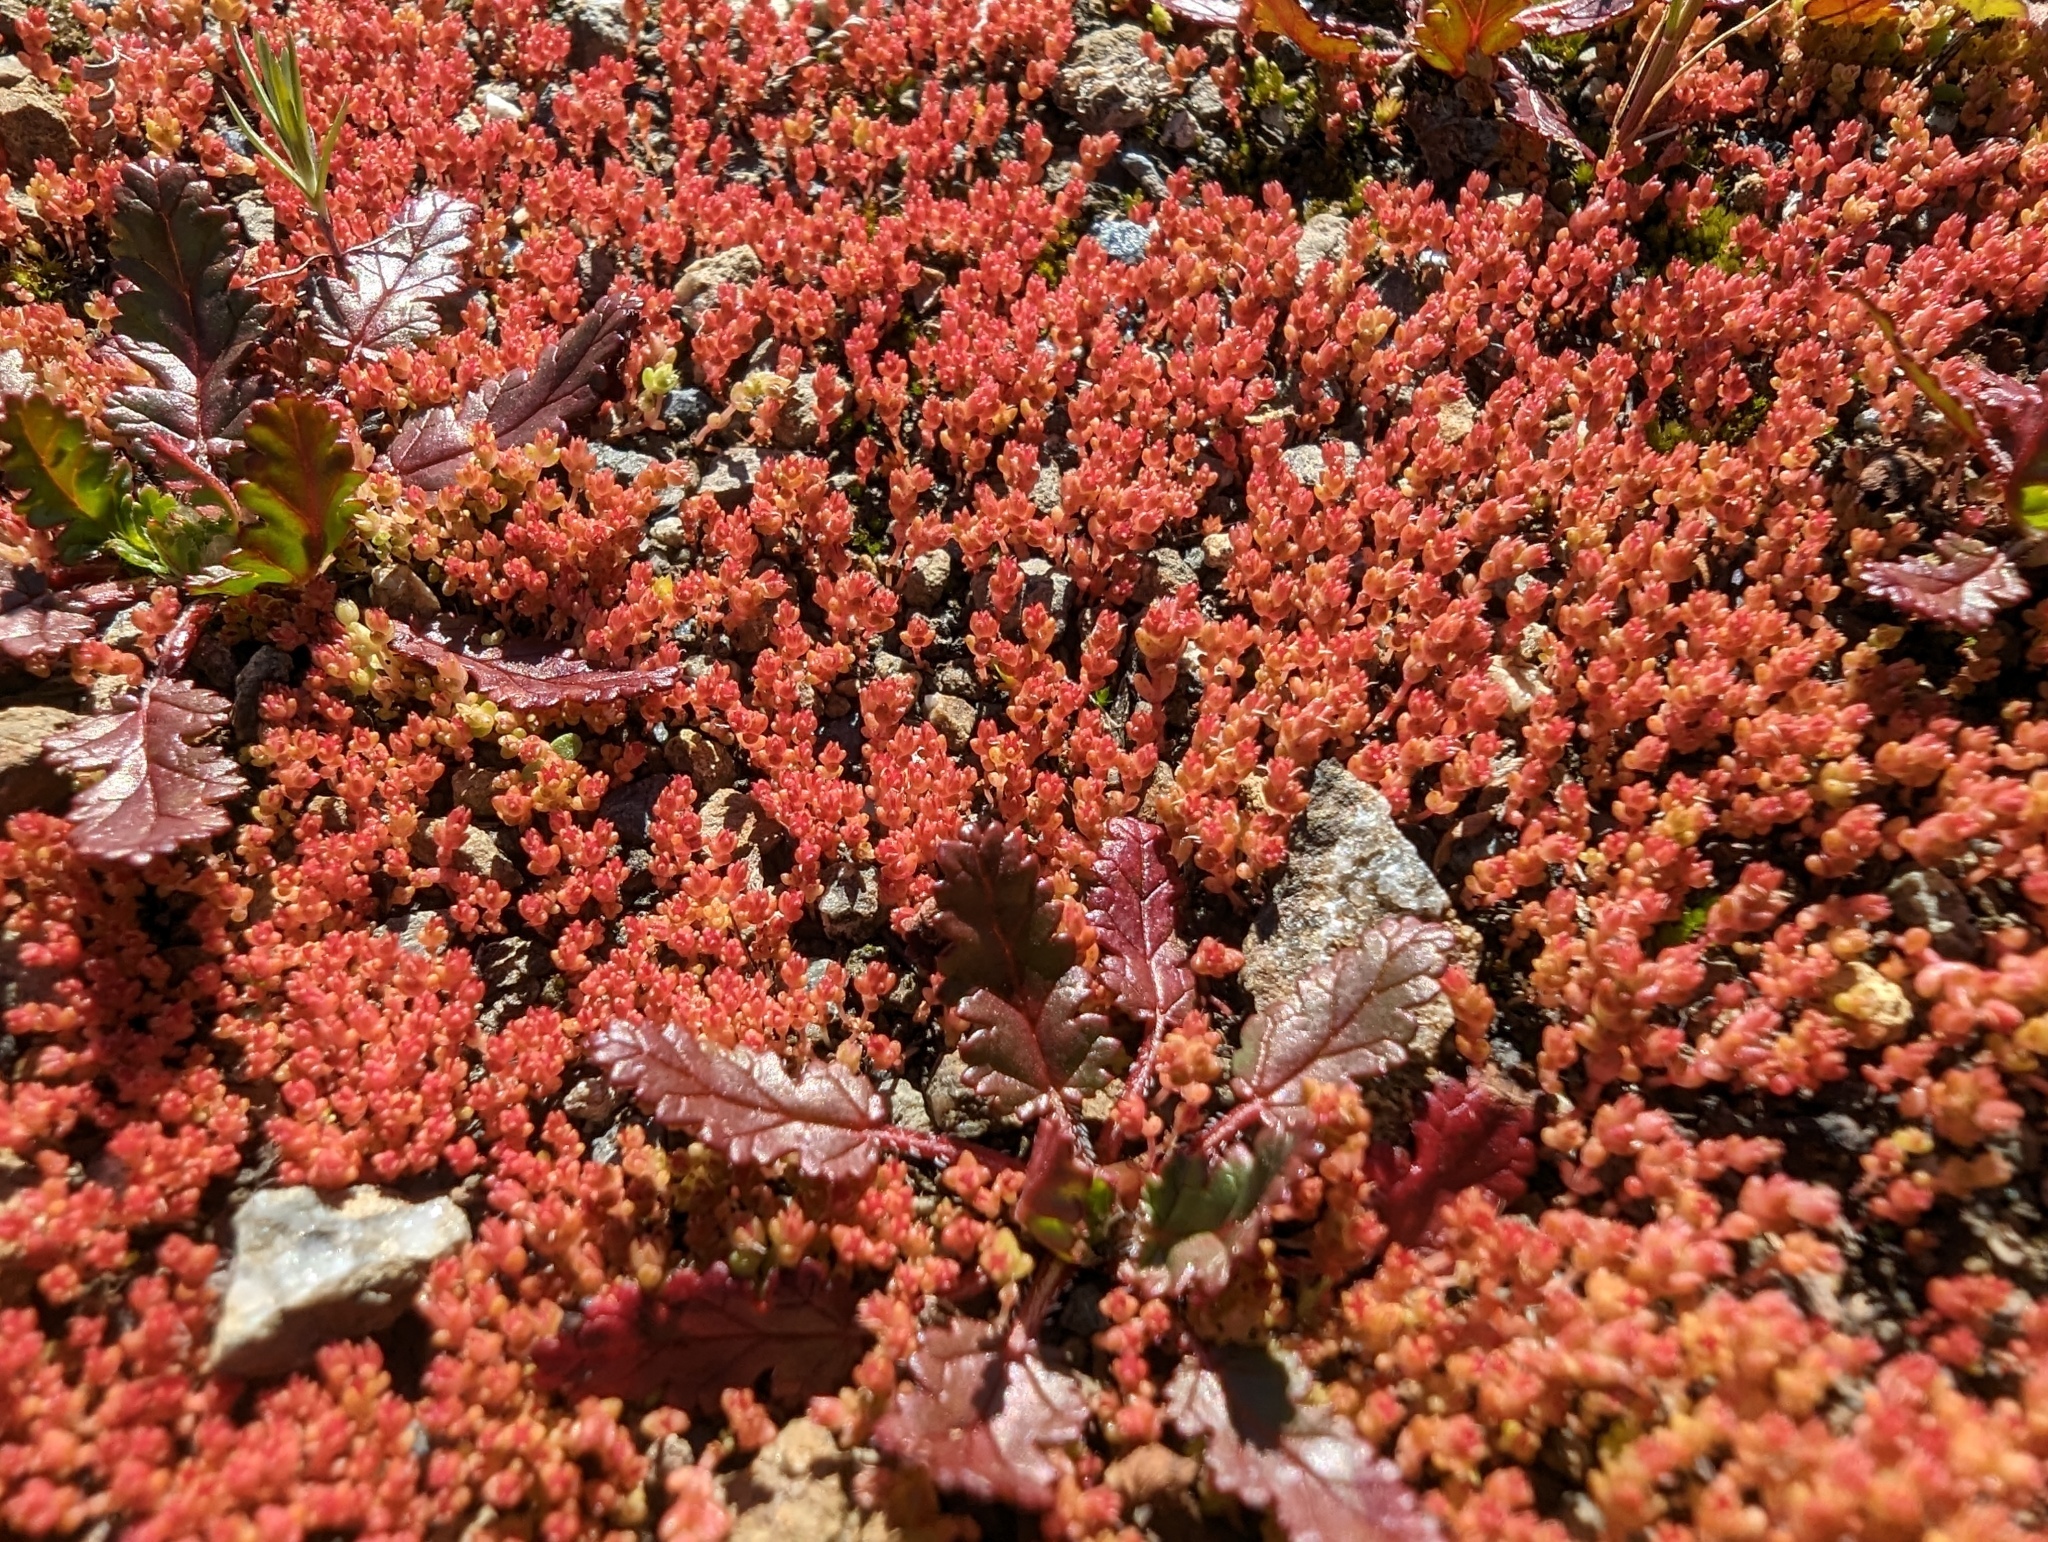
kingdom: Plantae
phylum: Tracheophyta
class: Magnoliopsida
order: Saxifragales
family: Crassulaceae
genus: Crassula
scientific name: Crassula connata
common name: Erect pygmyweed
